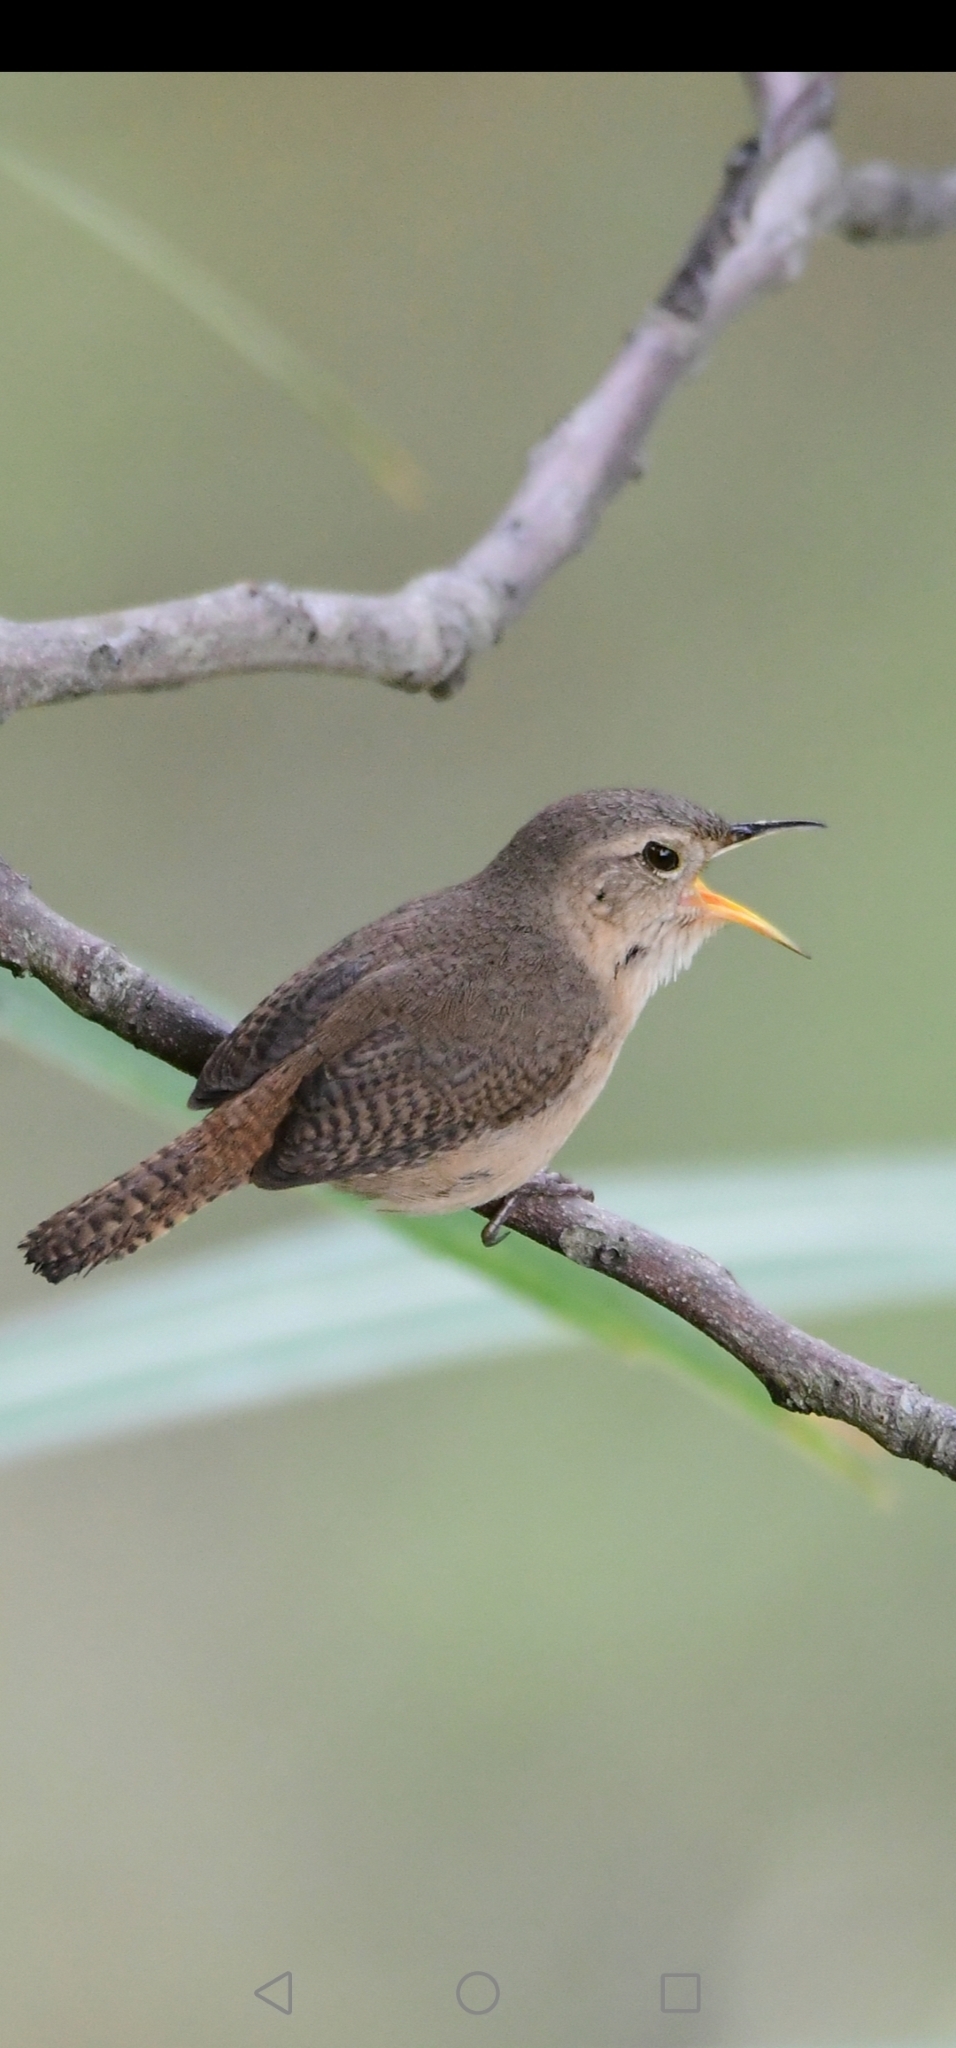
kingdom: Animalia
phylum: Chordata
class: Aves
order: Passeriformes
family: Troglodytidae
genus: Troglodytes
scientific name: Troglodytes aedon
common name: House wren
